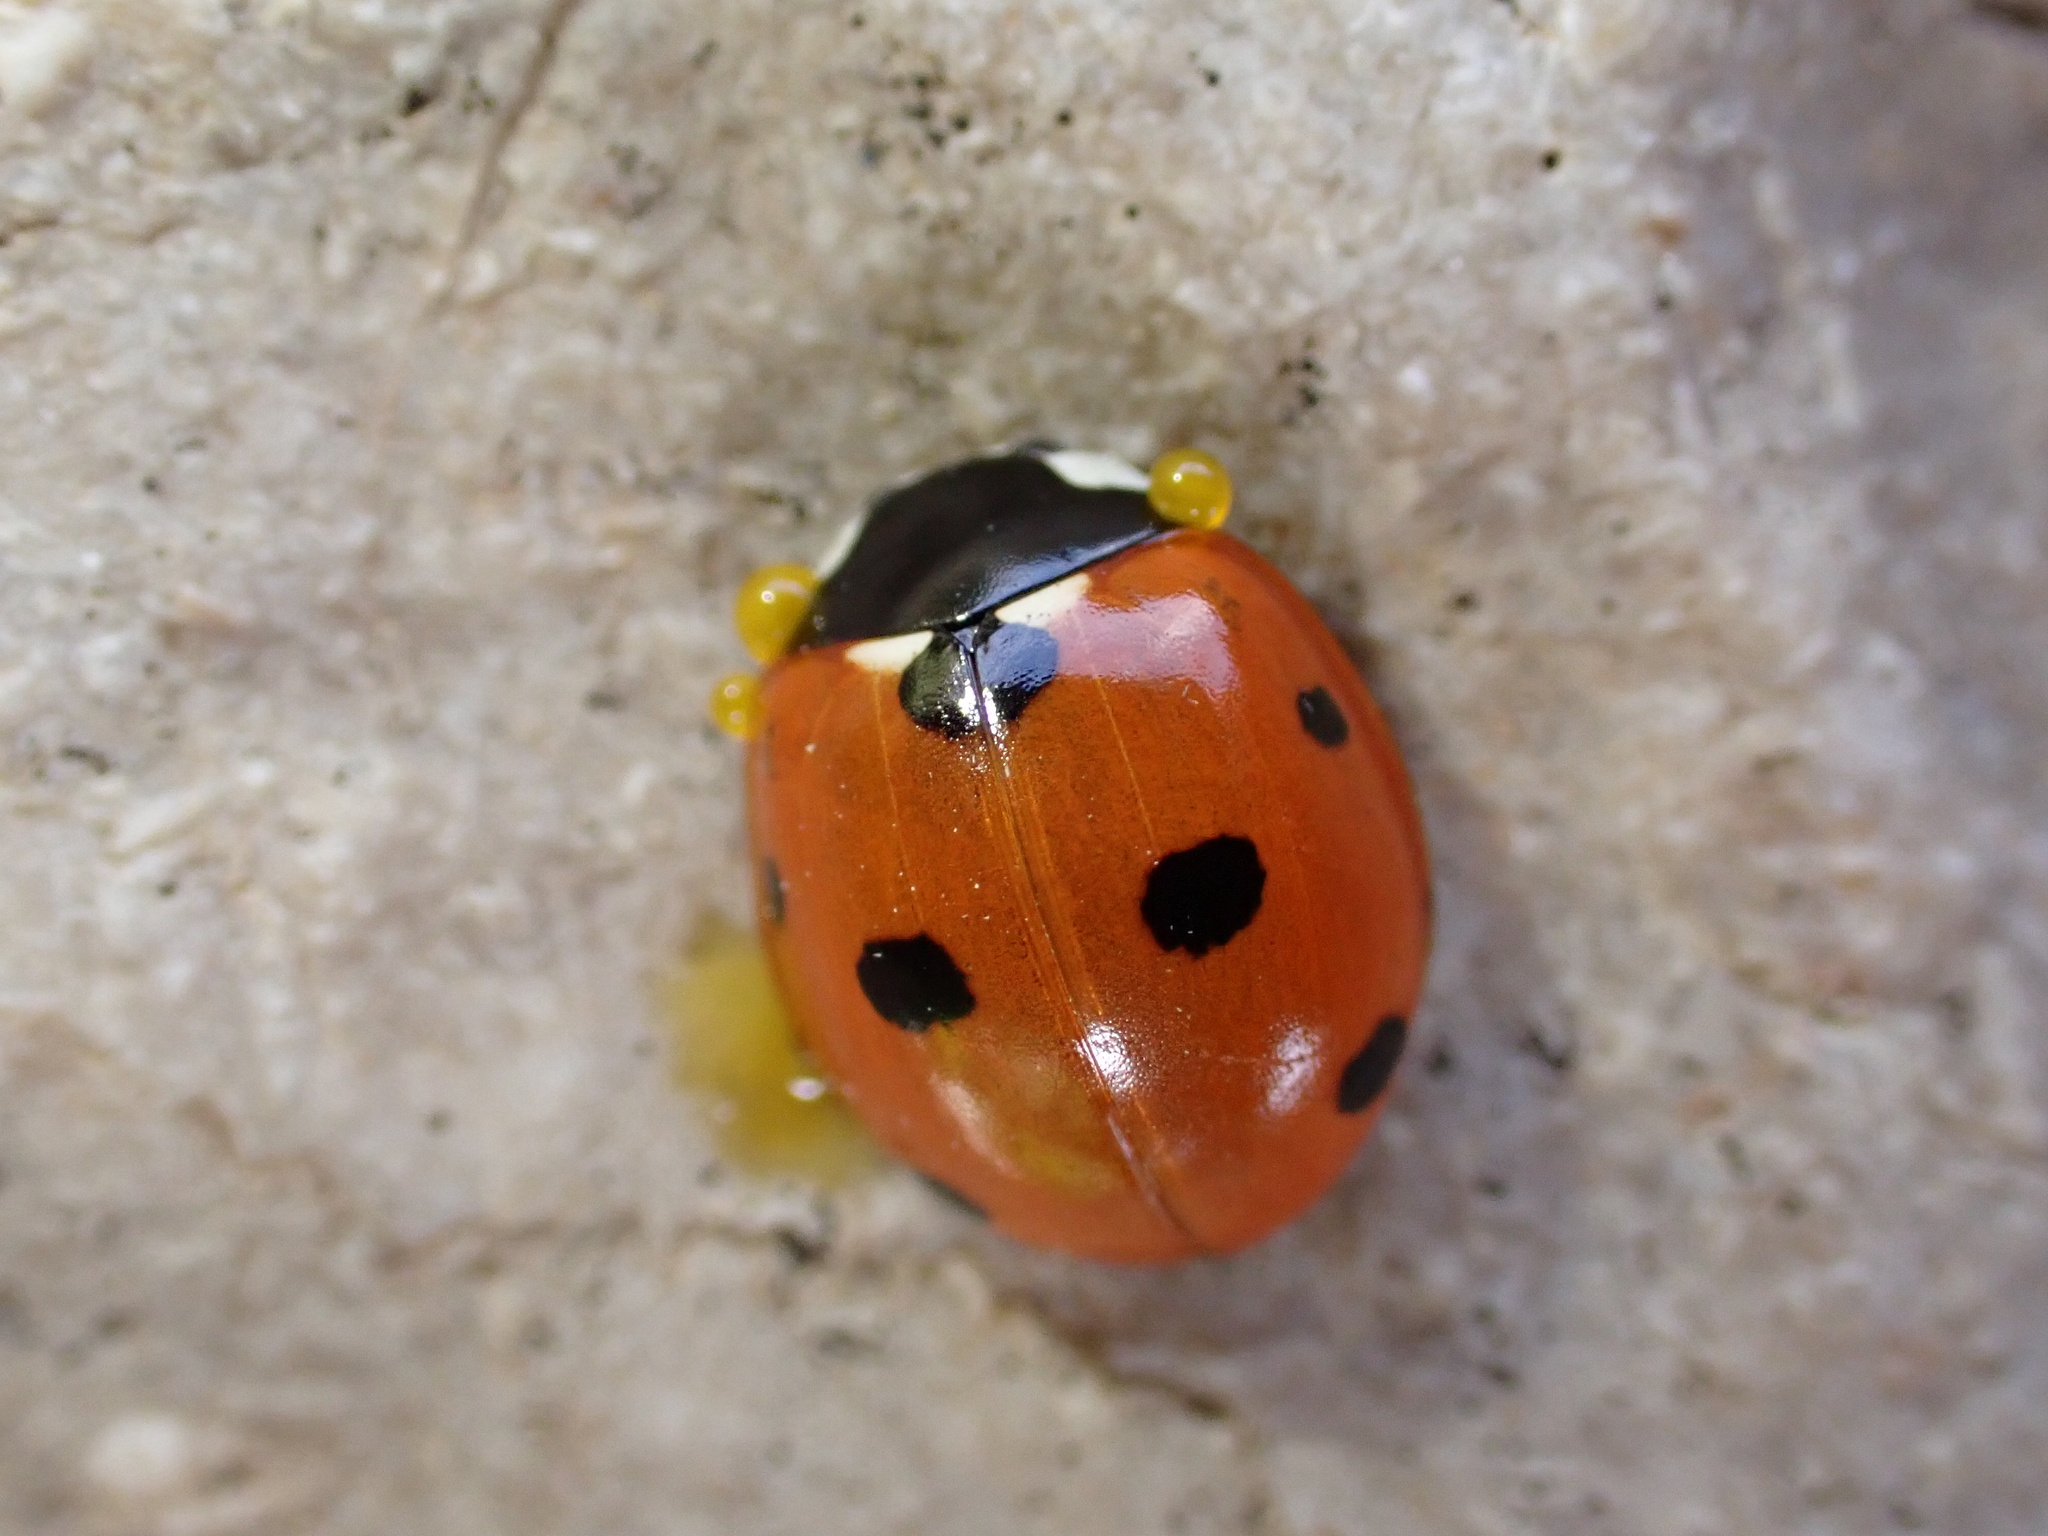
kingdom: Animalia
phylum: Arthropoda
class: Insecta
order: Coleoptera
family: Coccinellidae
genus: Coccinella
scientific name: Coccinella septempunctata
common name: Sevenspotted lady beetle
